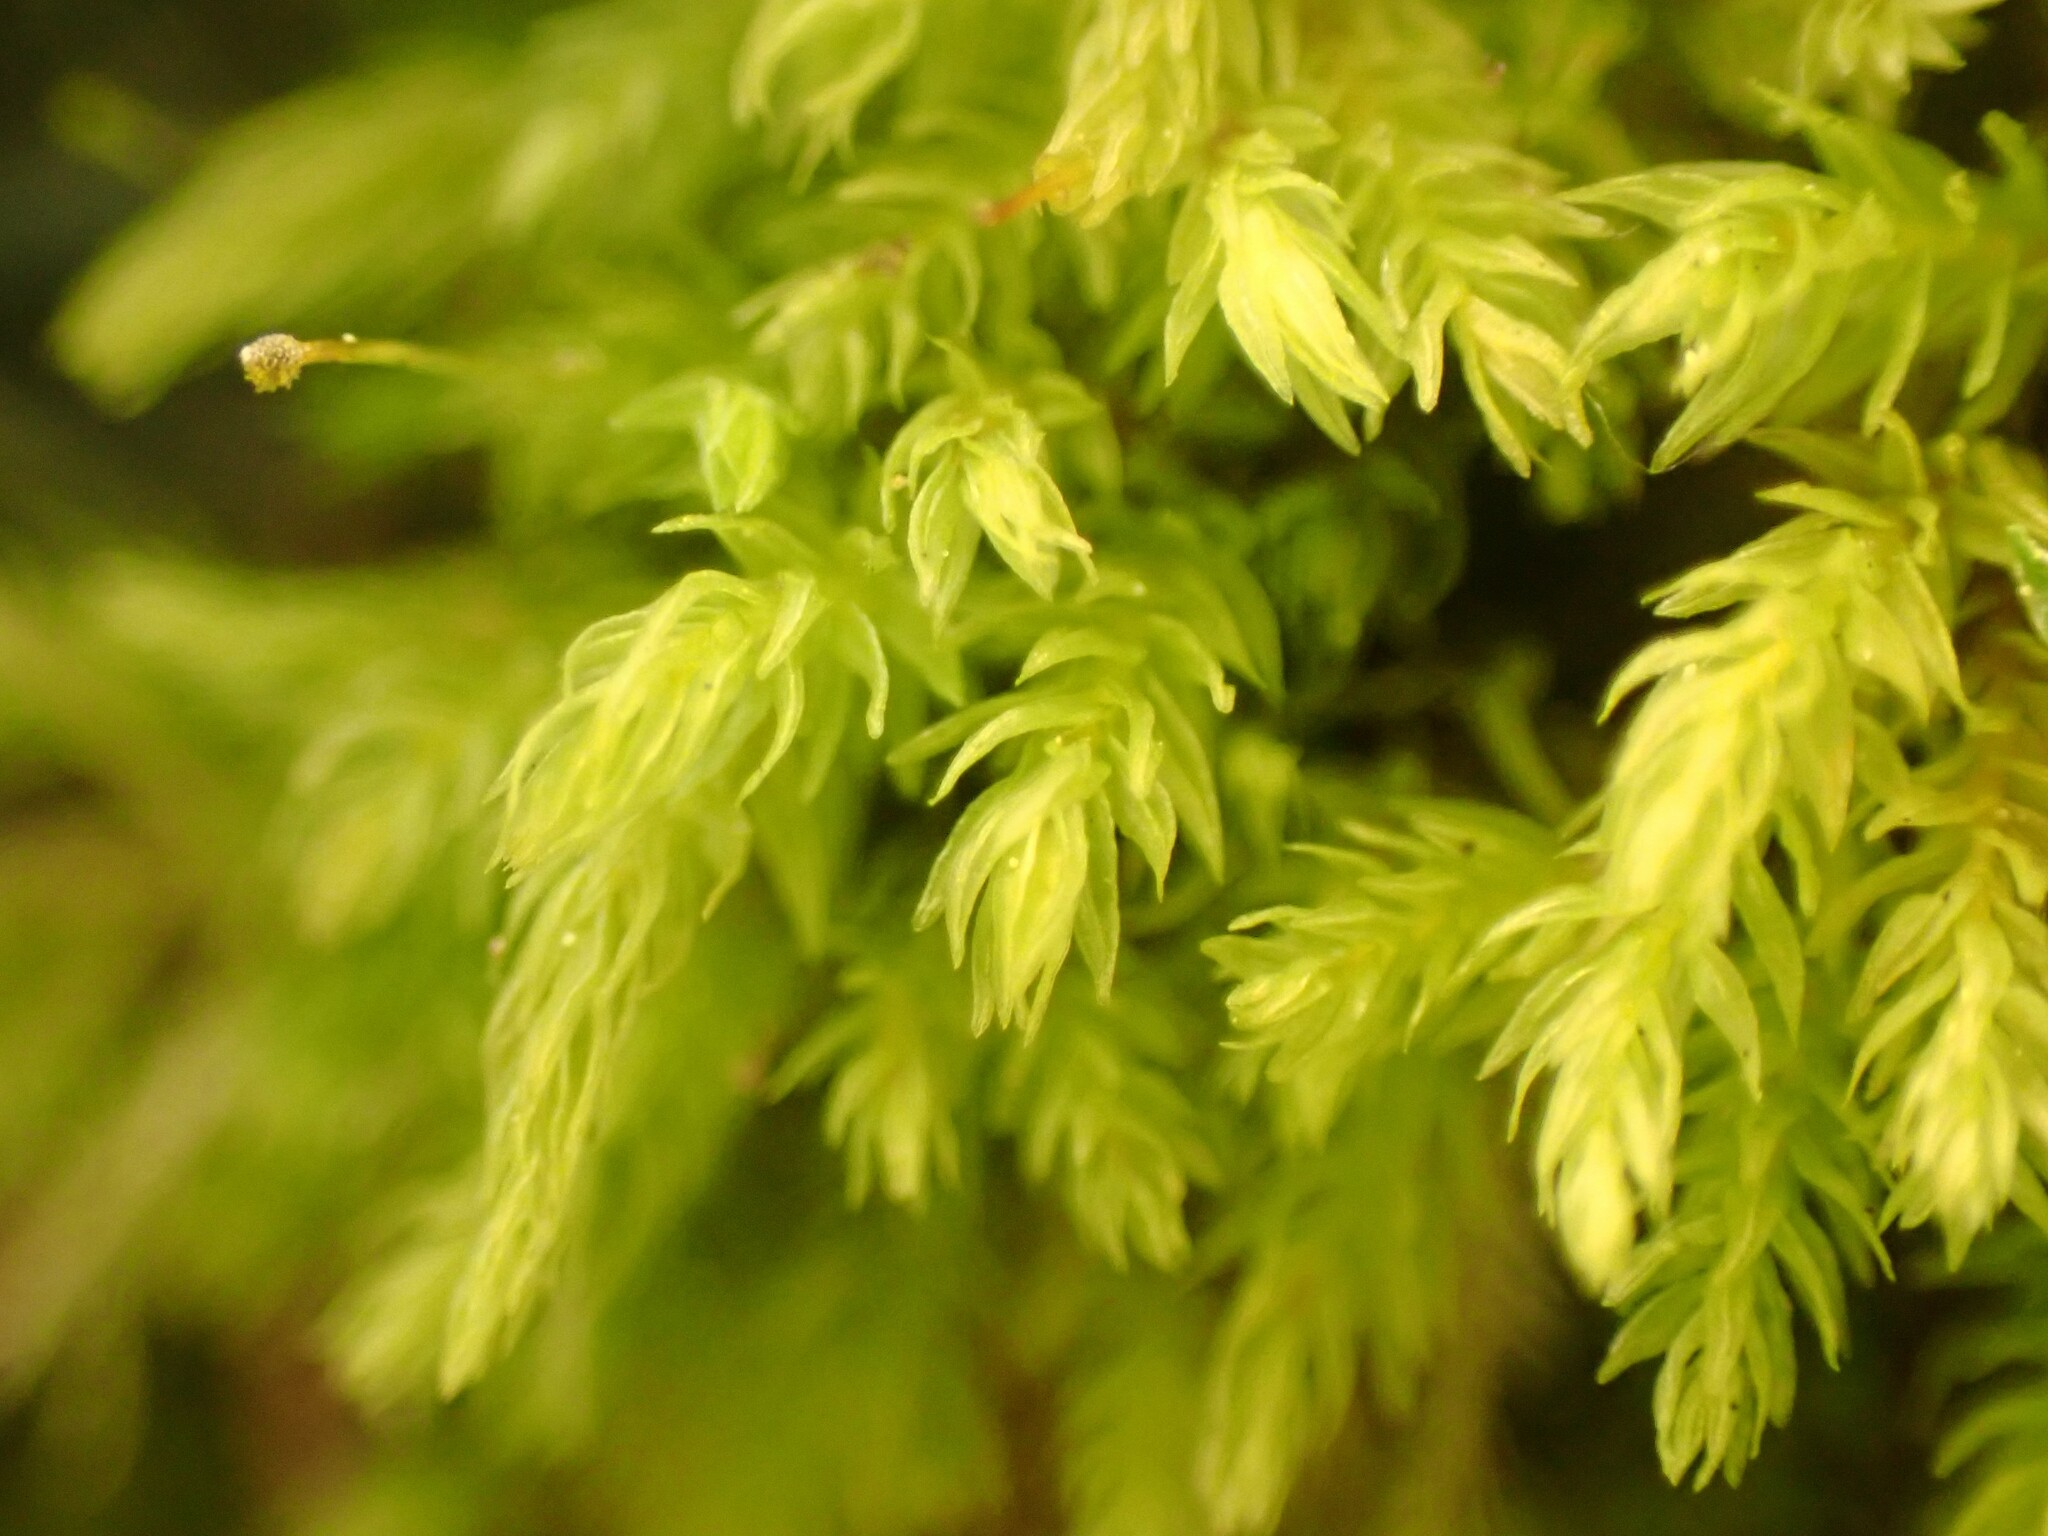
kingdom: Plantae
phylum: Bryophyta
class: Bryopsida
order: Aulacomniales
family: Aulacomniaceae
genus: Aulacomnium
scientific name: Aulacomnium androgynum
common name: Little groove moss
